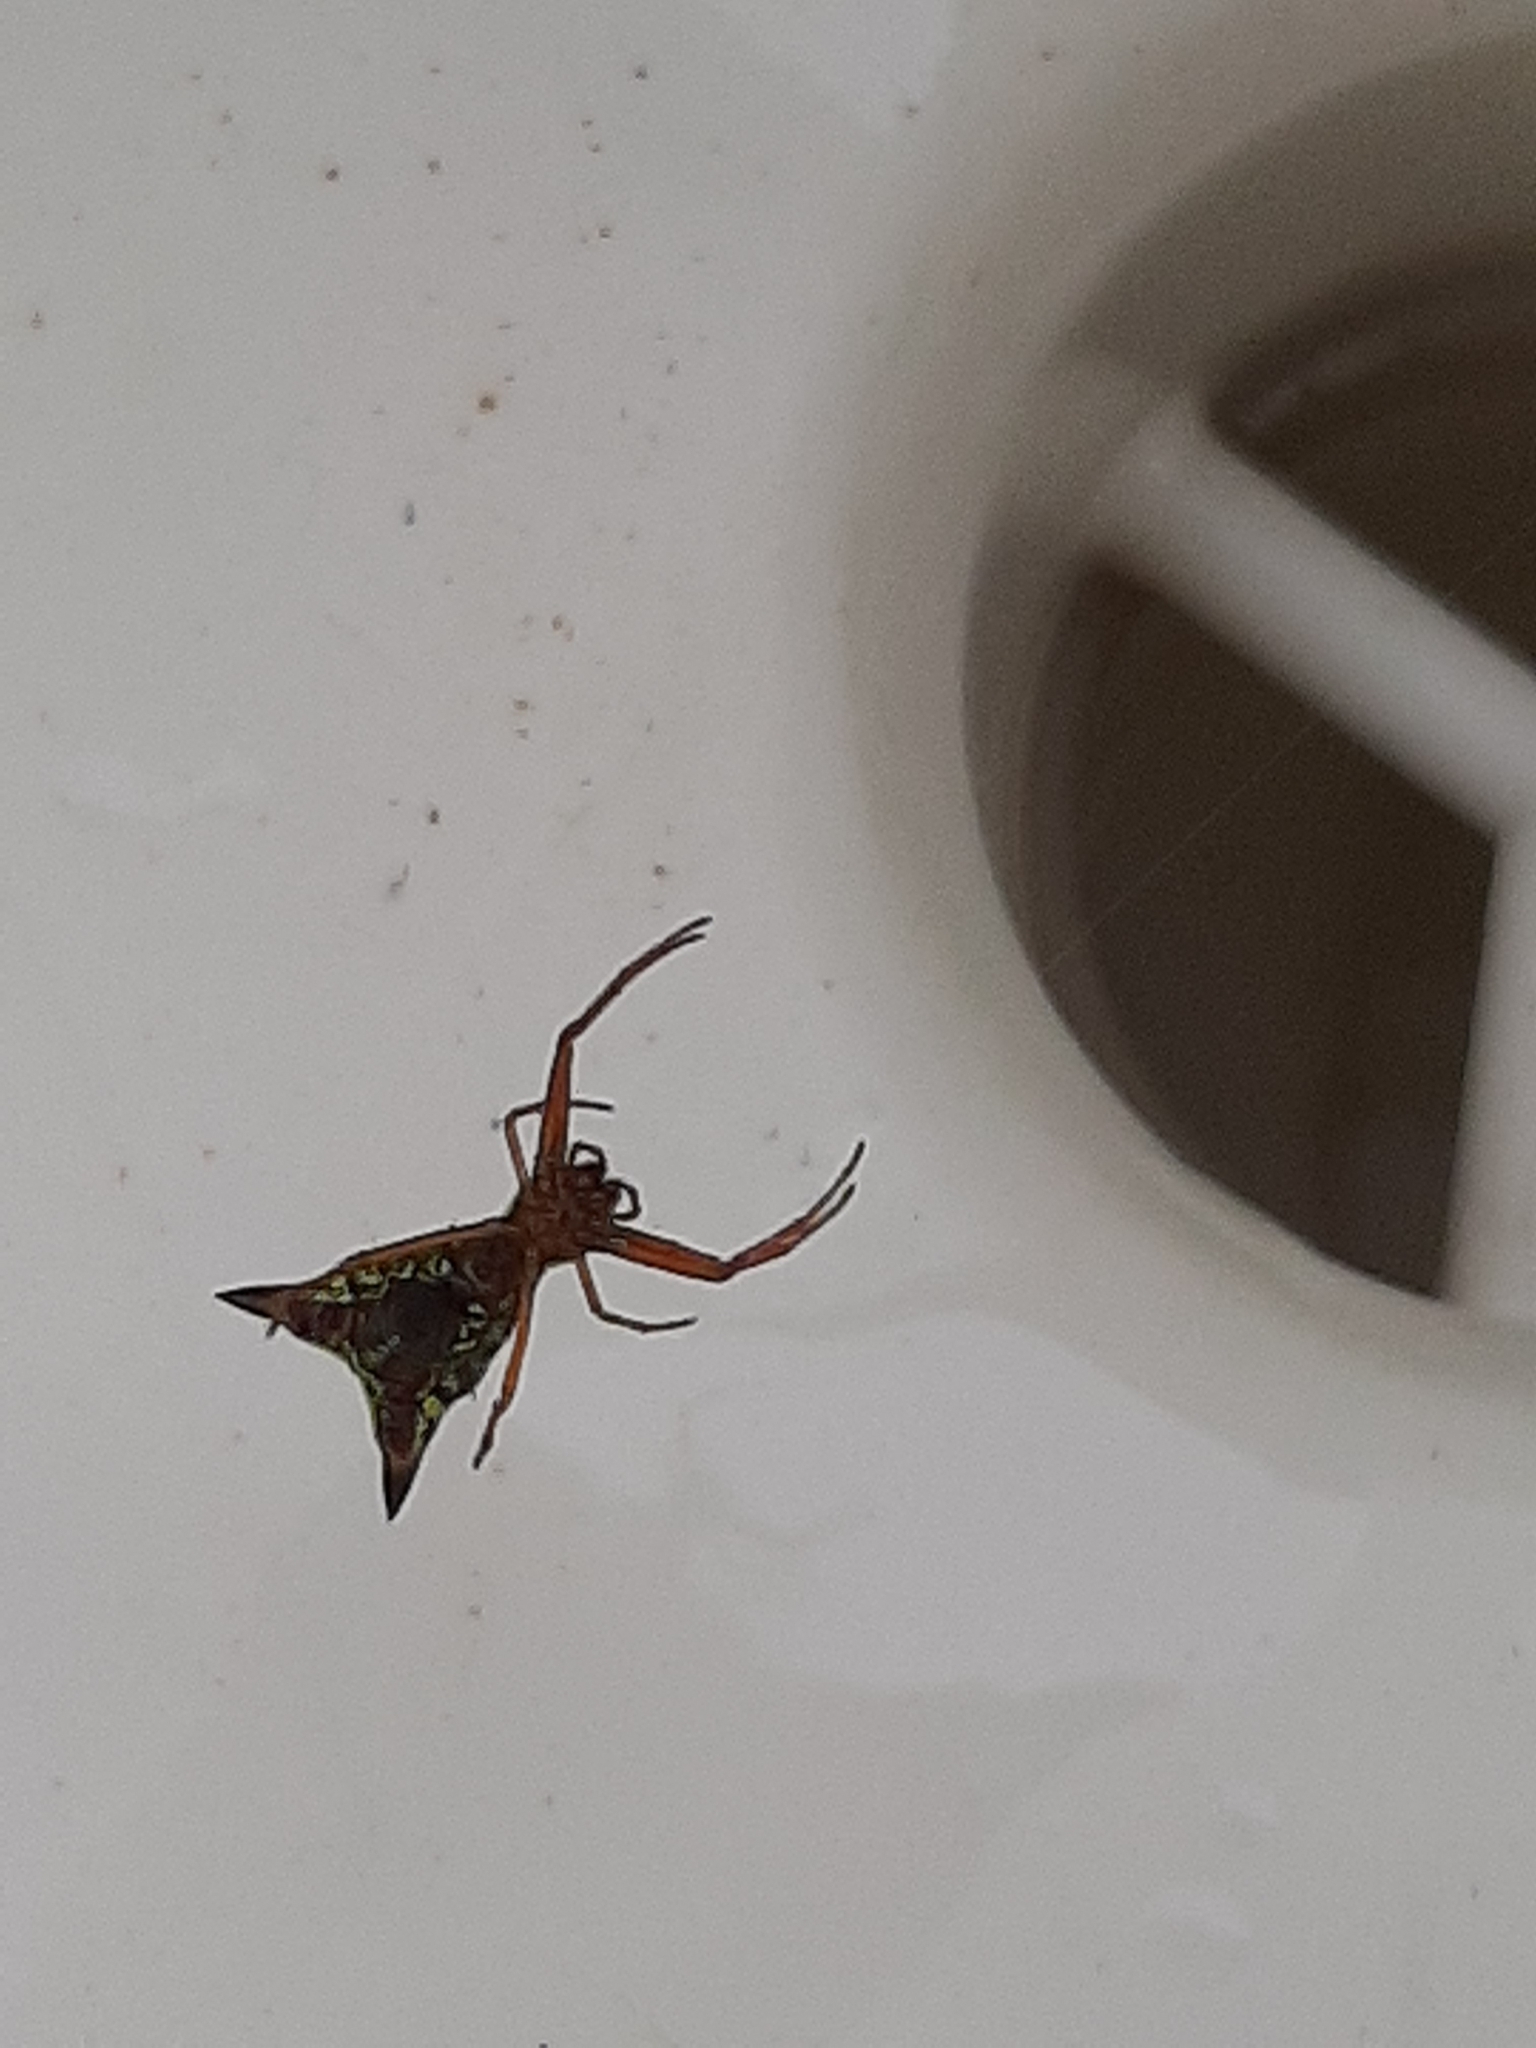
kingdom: Animalia
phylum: Arthropoda
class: Arachnida
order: Araneae
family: Araneidae
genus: Micrathena
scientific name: Micrathena sagittata
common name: Orb weavers
